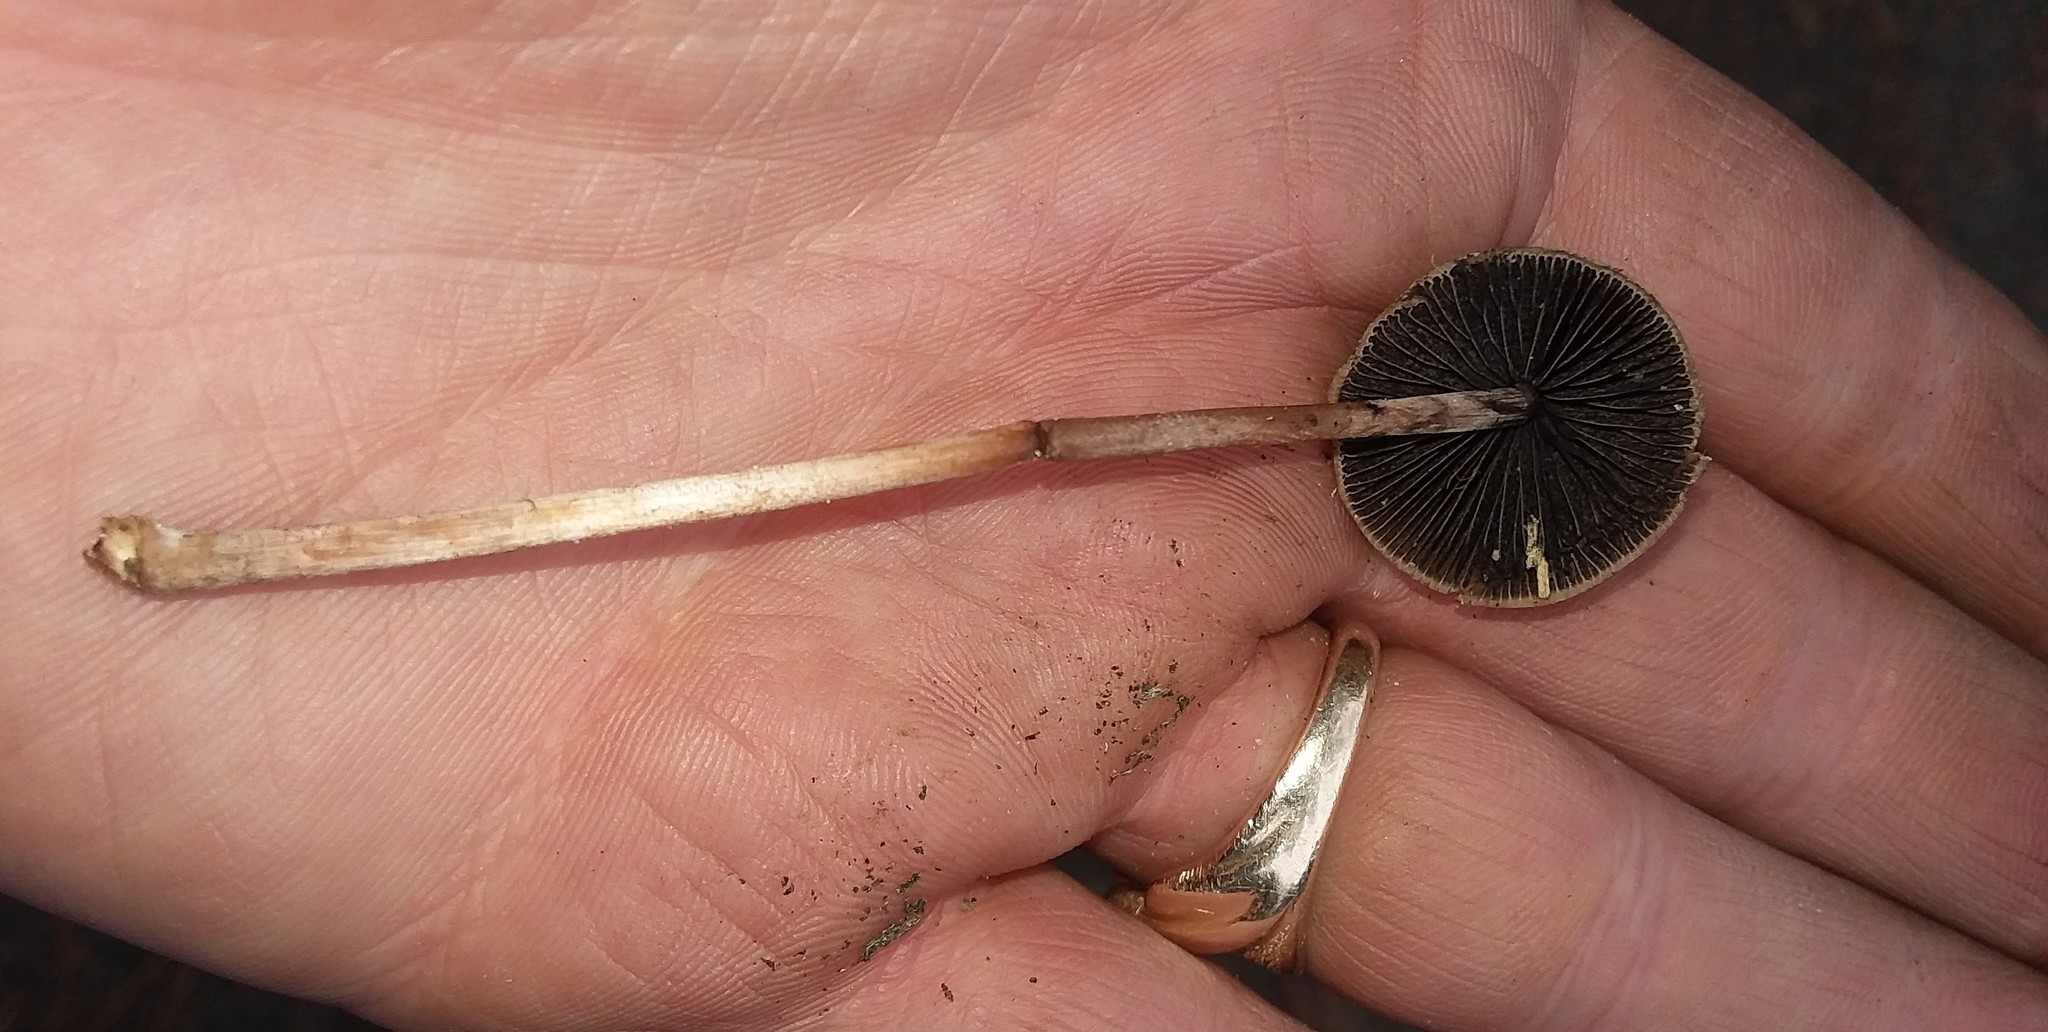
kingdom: Fungi
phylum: Basidiomycota
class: Agaricomycetes
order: Agaricales
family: Bolbitiaceae
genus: Panaeolus
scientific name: Panaeolus papilionaceus
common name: Petticoat mottlegill
